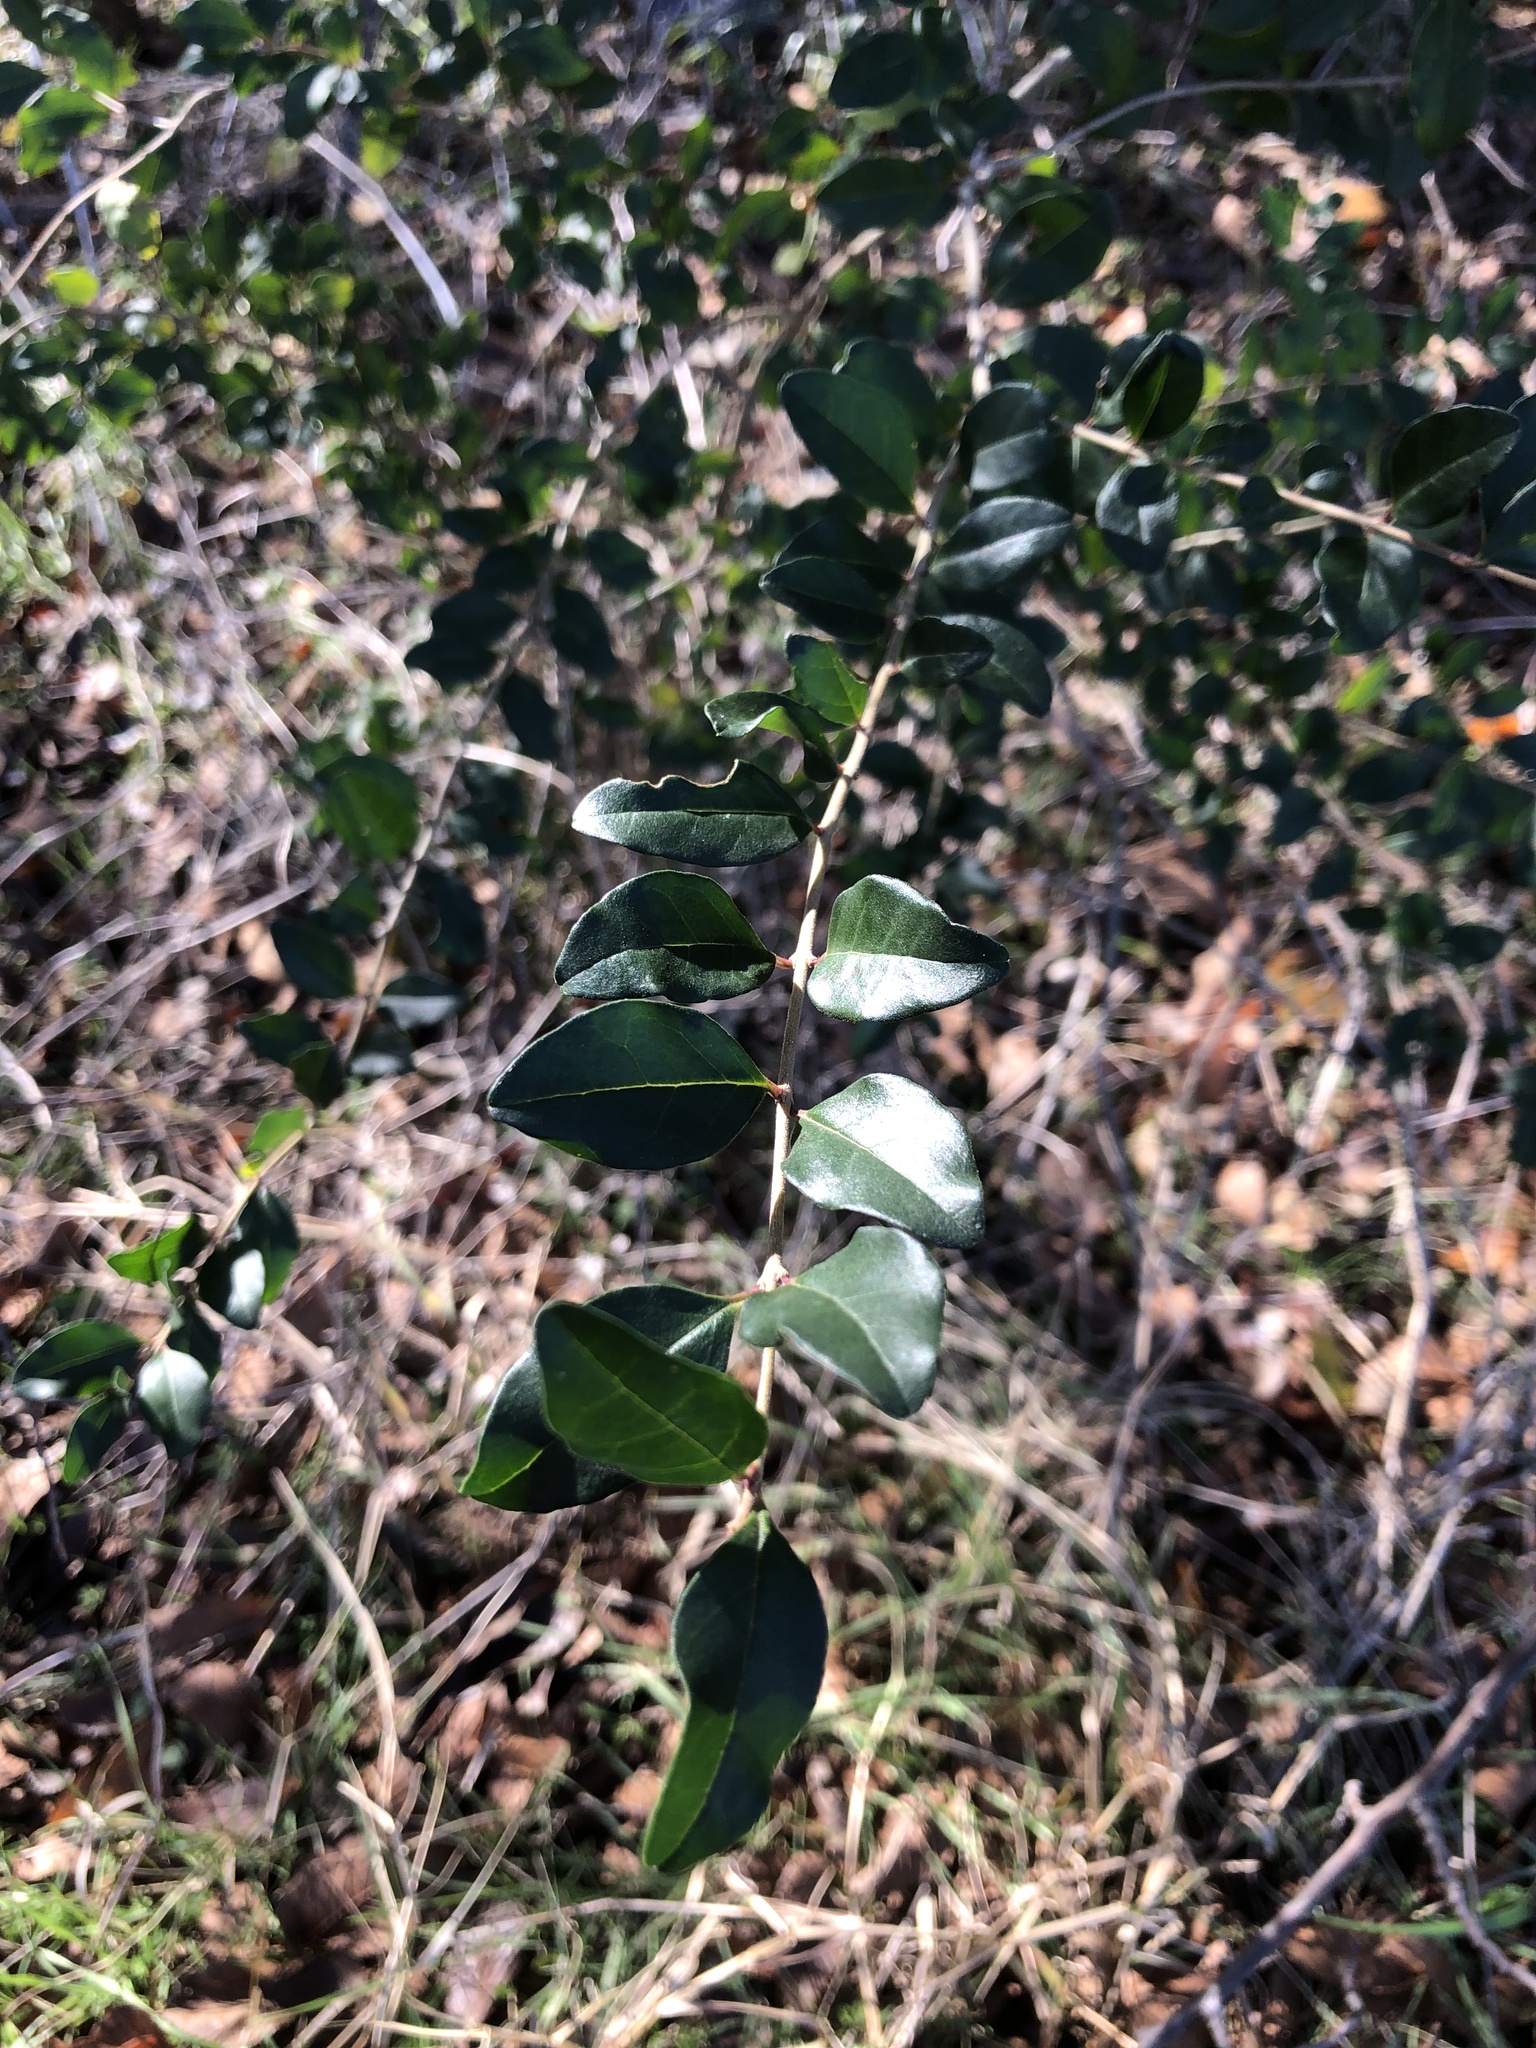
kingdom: Plantae
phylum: Tracheophyta
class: Magnoliopsida
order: Lamiales
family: Oleaceae
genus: Ligustrum
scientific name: Ligustrum sinense
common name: Chinese privet
